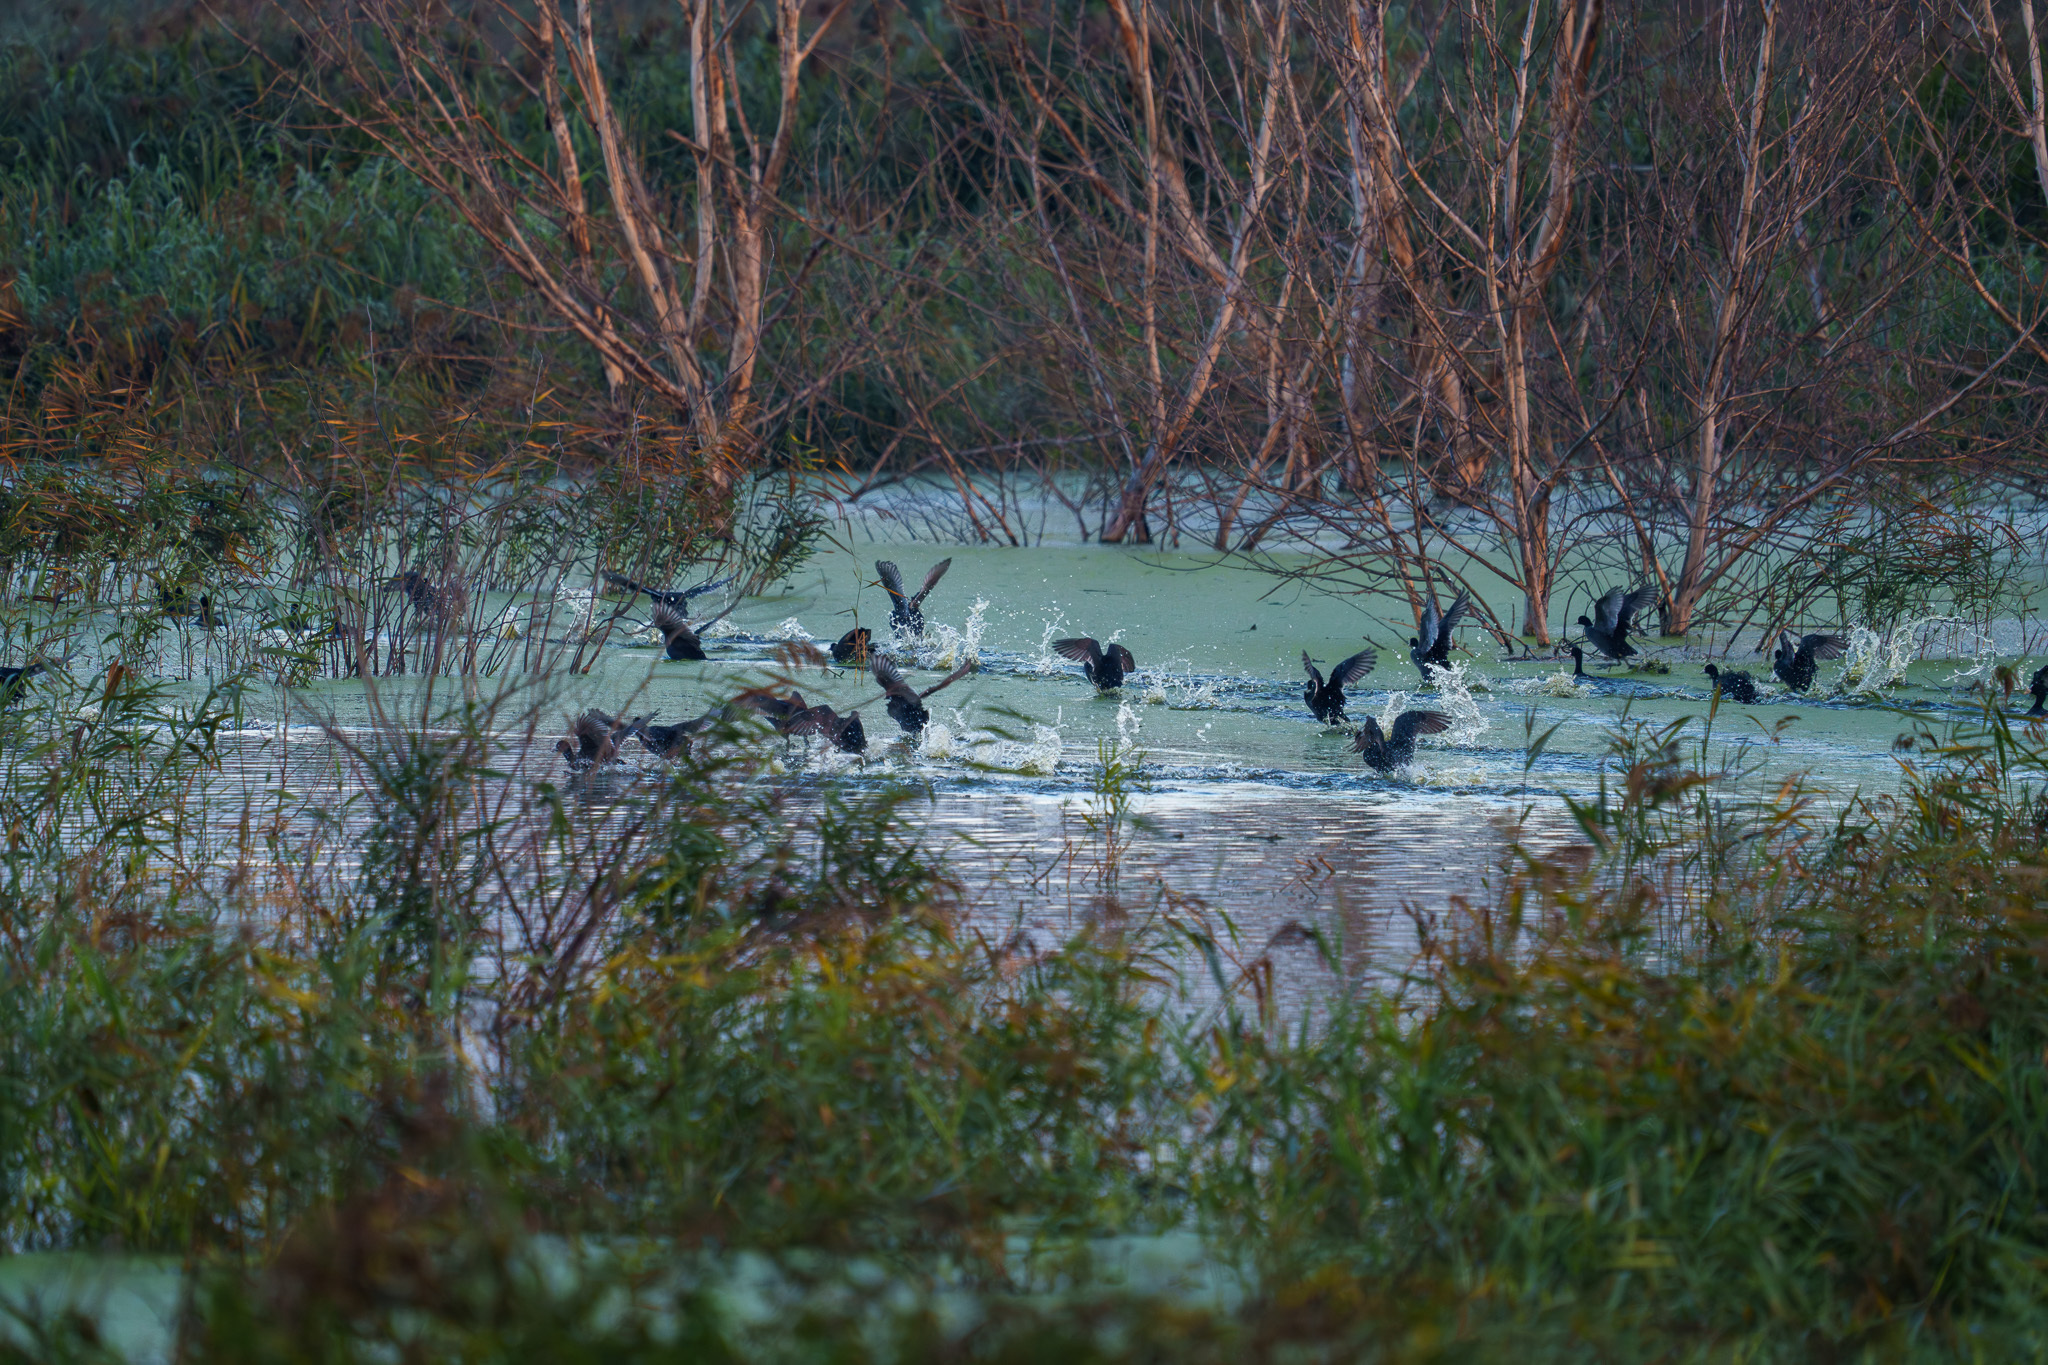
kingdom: Animalia
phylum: Chordata
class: Aves
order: Gruiformes
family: Rallidae
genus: Fulica
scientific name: Fulica atra
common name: Eurasian coot
